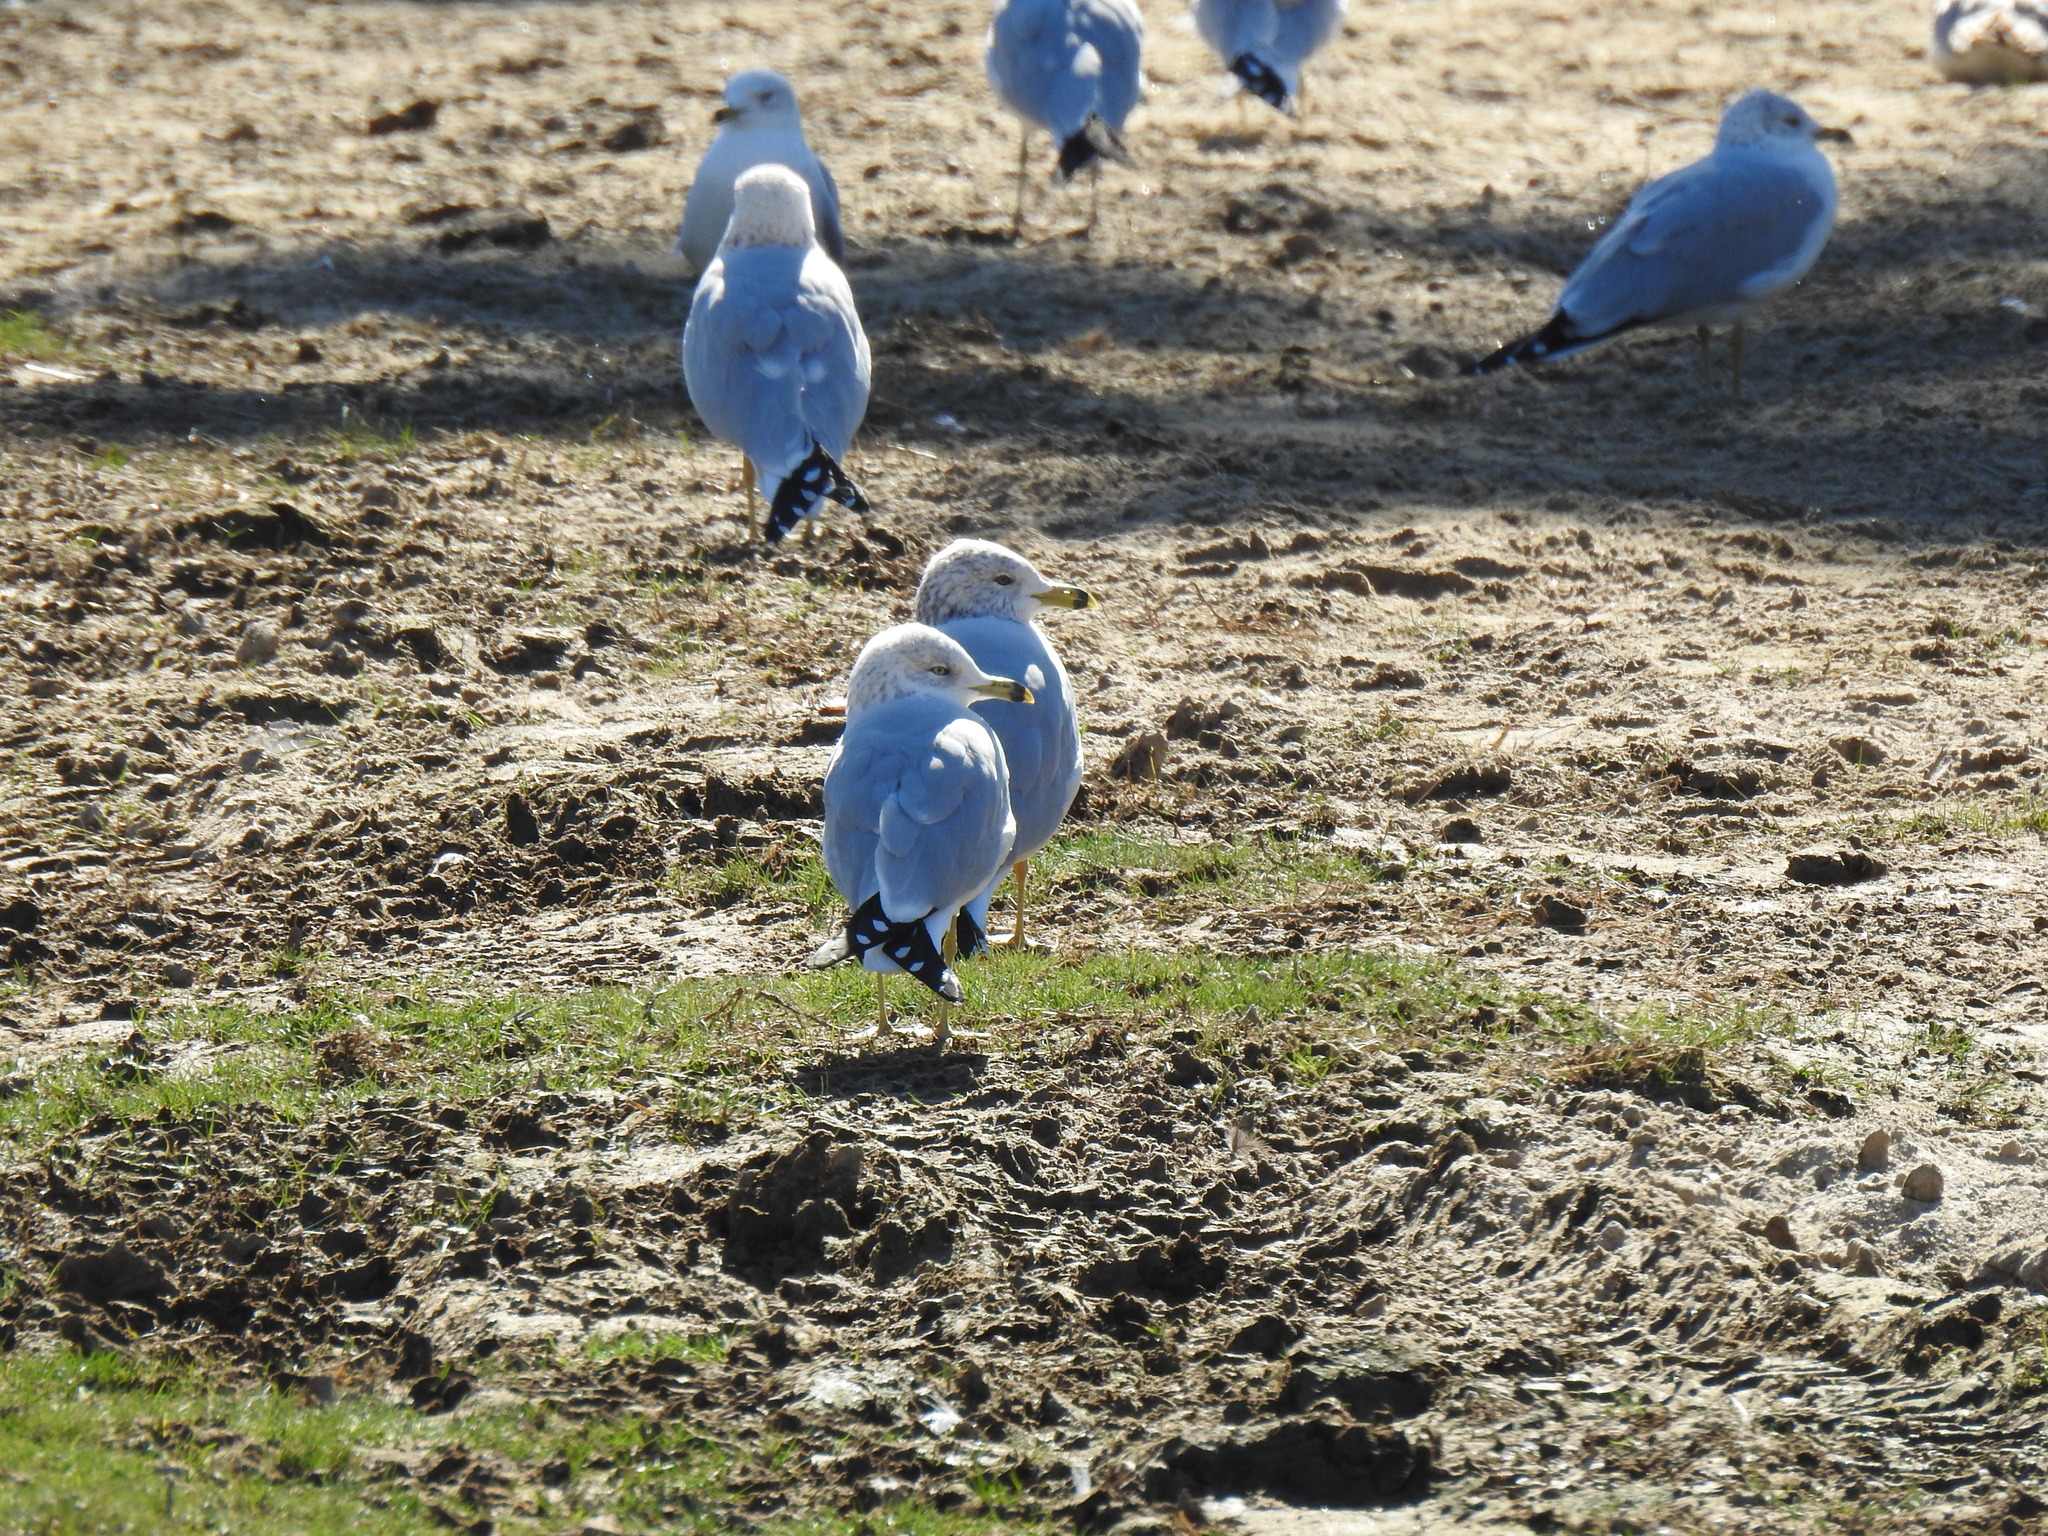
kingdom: Animalia
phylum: Chordata
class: Aves
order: Charadriiformes
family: Laridae
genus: Larus
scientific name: Larus delawarensis
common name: Ring-billed gull
